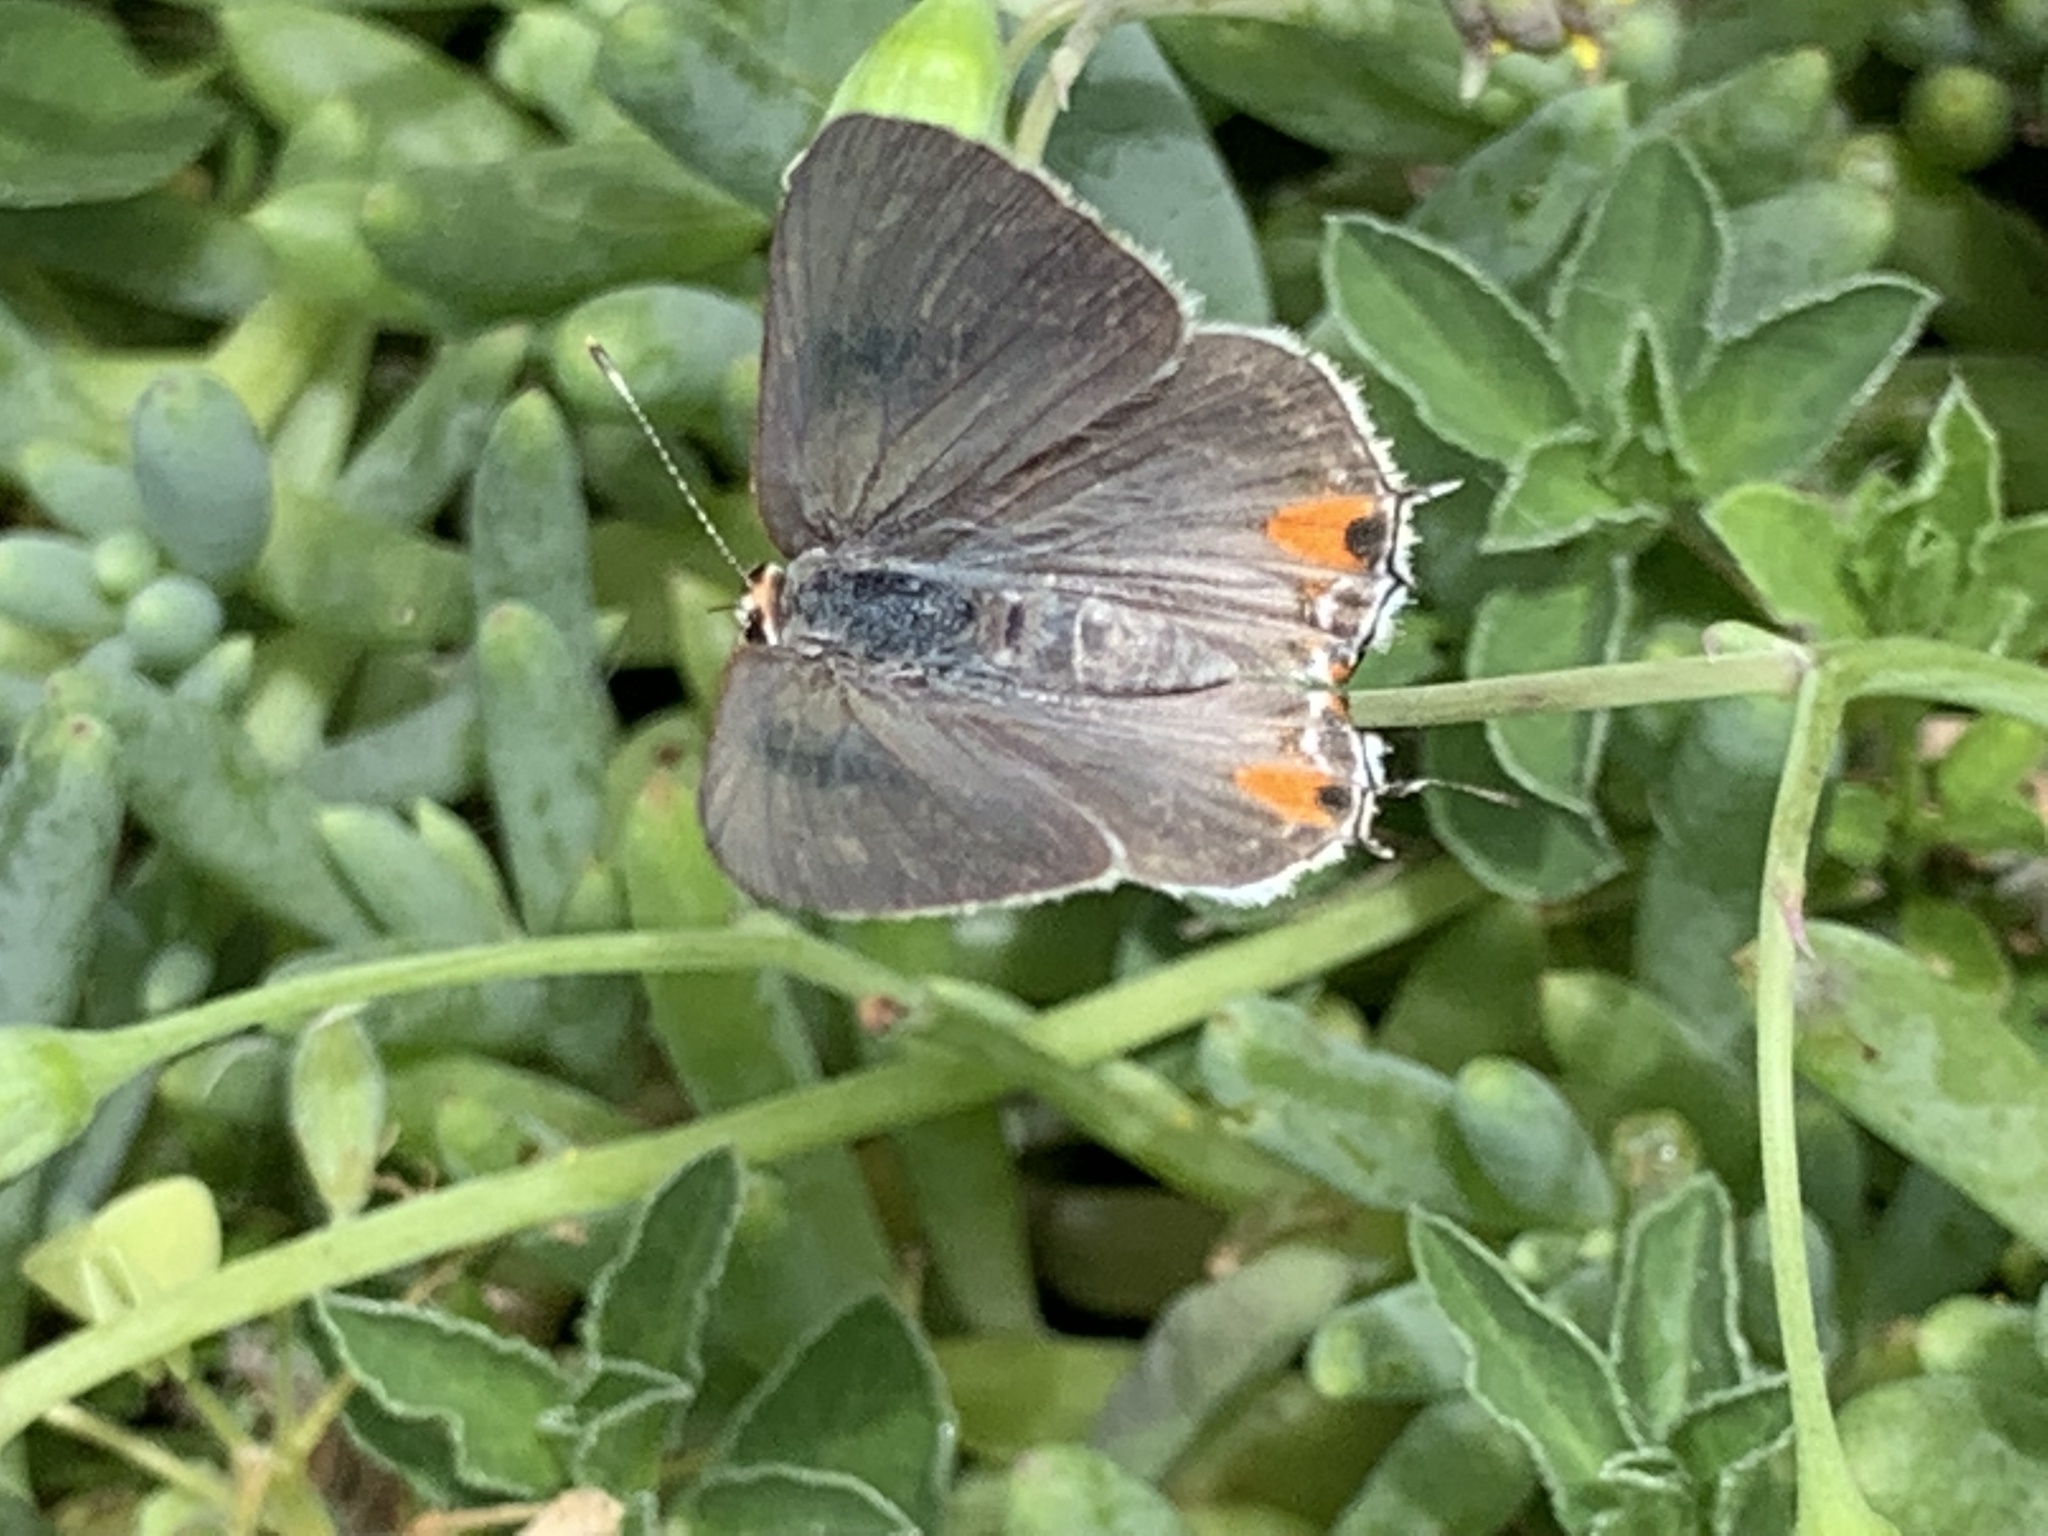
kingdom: Animalia
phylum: Arthropoda
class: Insecta
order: Lepidoptera
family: Lycaenidae
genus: Strymon
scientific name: Strymon melinus
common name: Gray hairstreak
